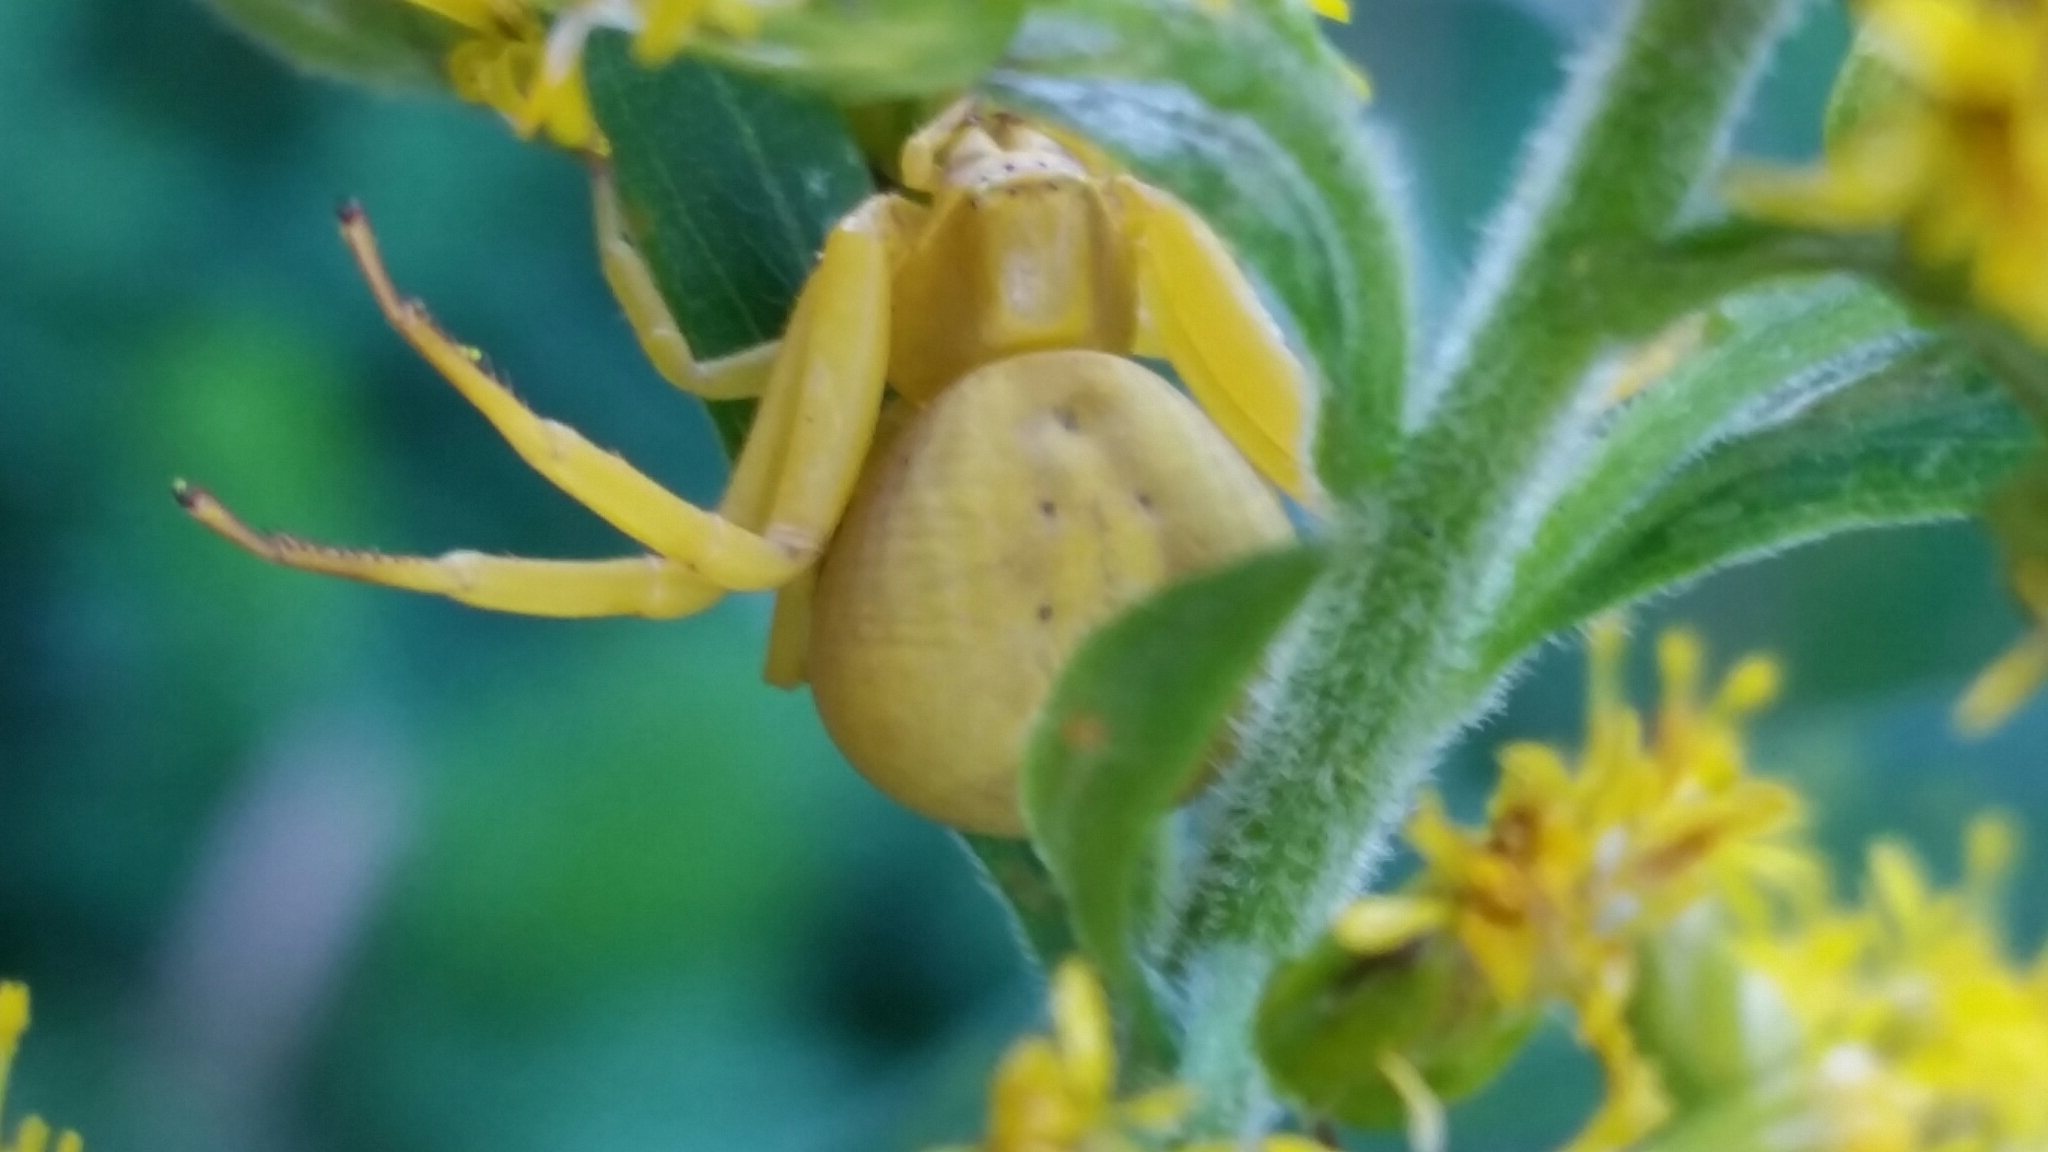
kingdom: Animalia
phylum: Arthropoda
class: Arachnida
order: Araneae
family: Thomisidae
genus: Misumenoides
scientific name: Misumenoides formosipes
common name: White-banded crab spider
